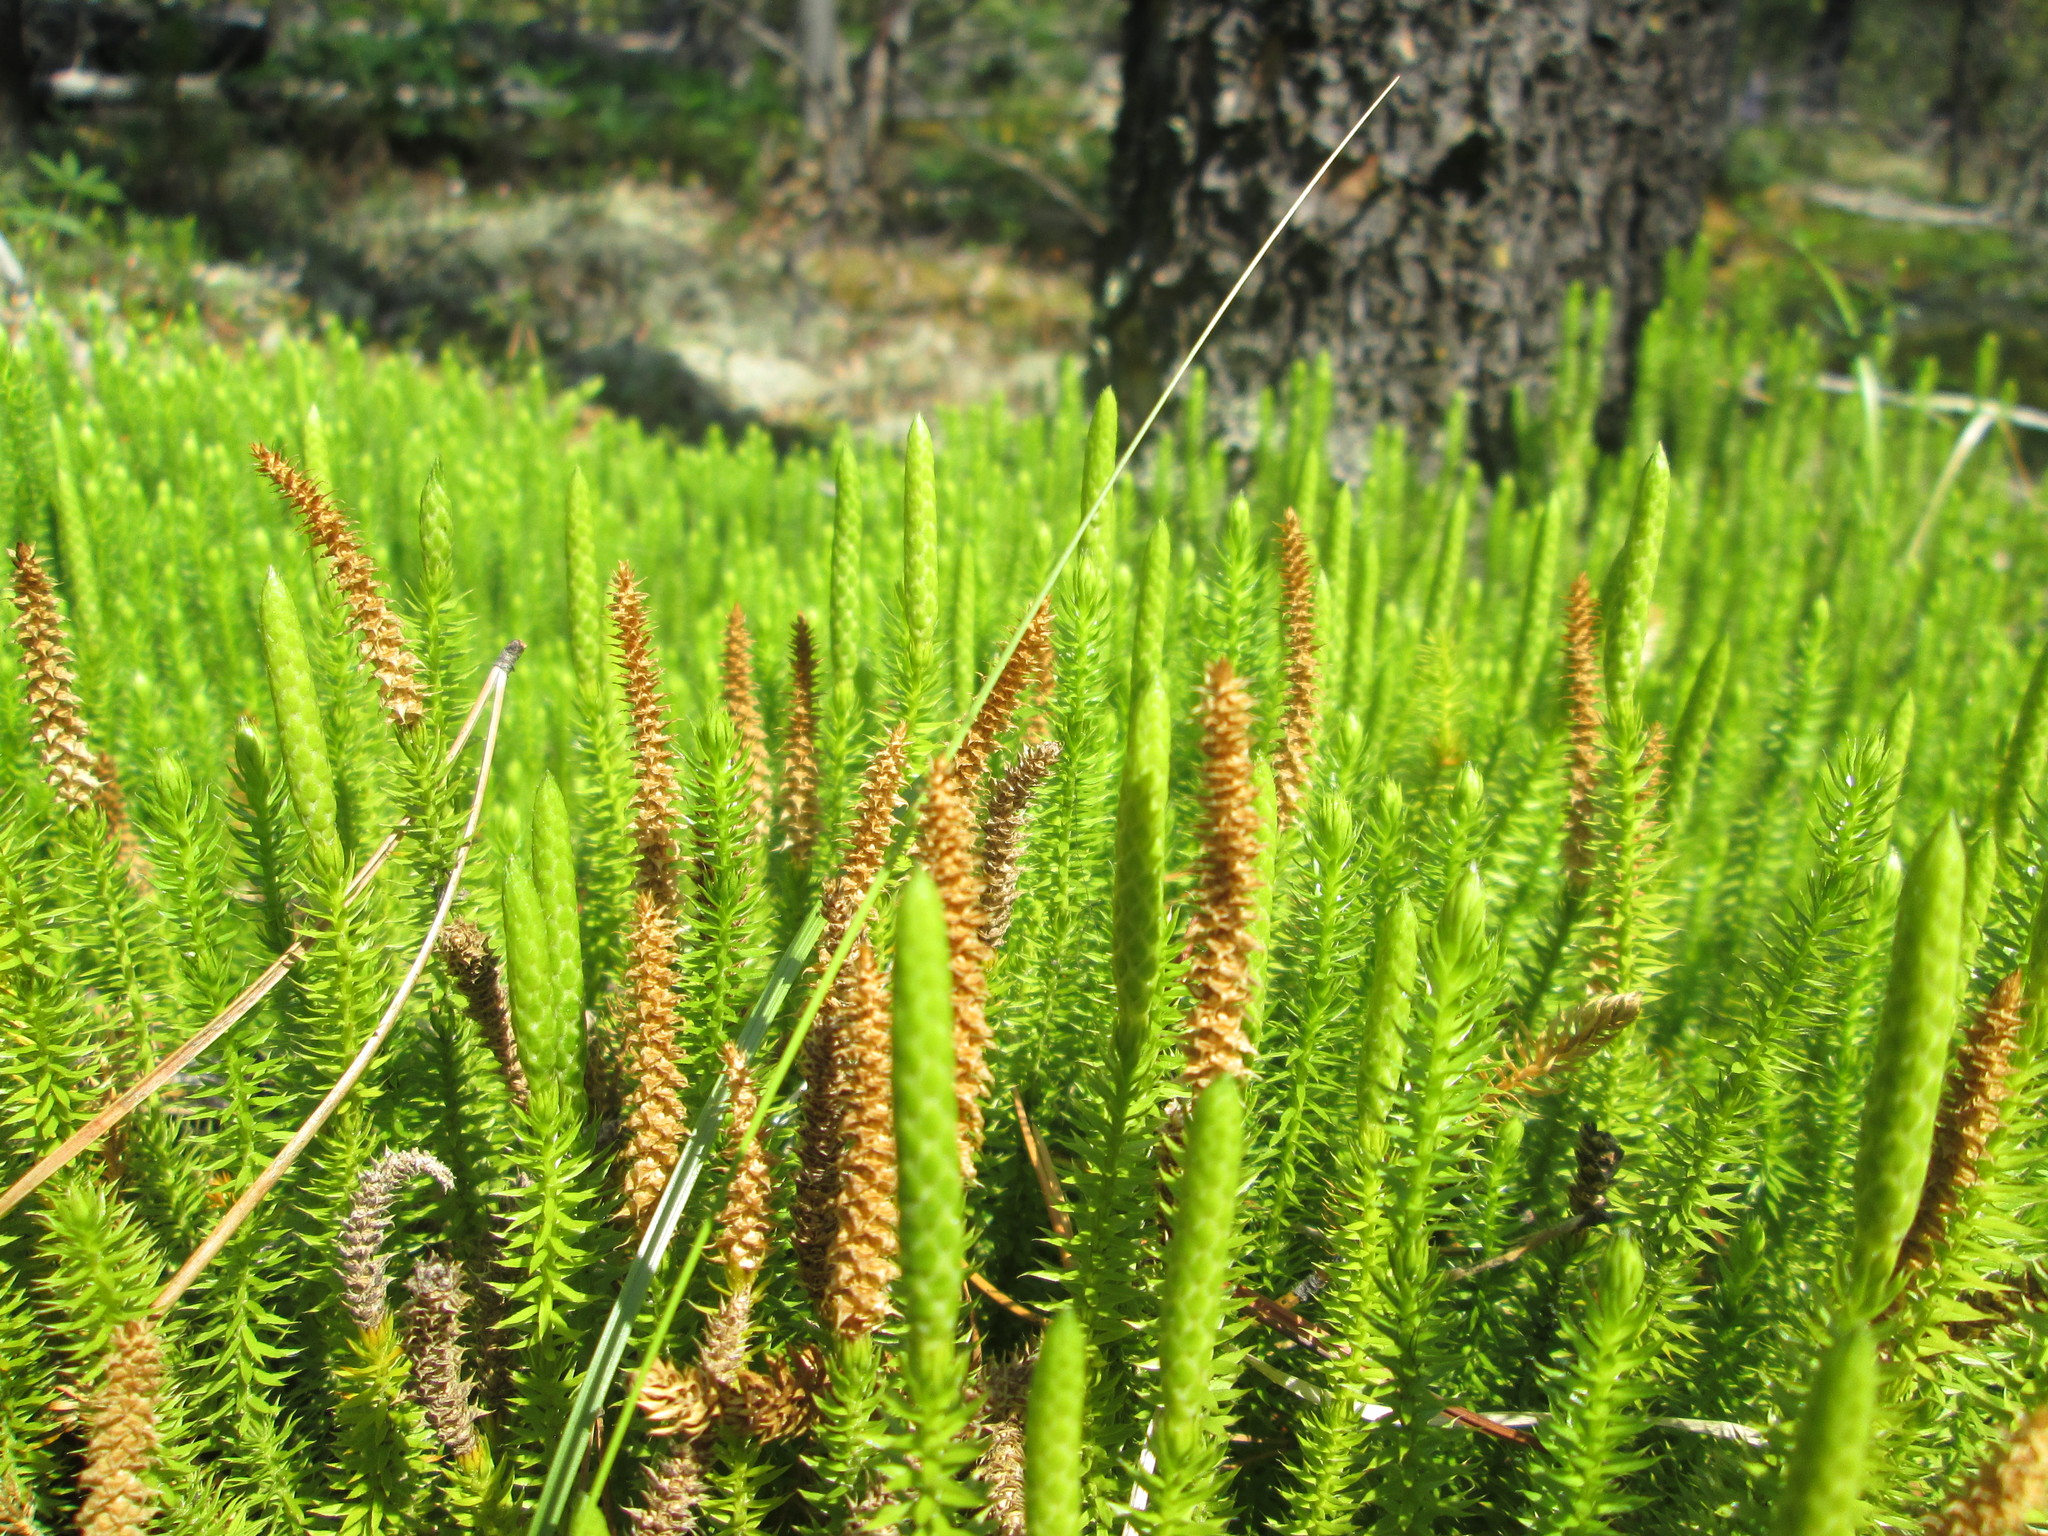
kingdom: Plantae
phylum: Tracheophyta
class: Lycopodiopsida
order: Lycopodiales
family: Lycopodiaceae
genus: Spinulum
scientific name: Spinulum annotinum
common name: Interrupted club-moss
